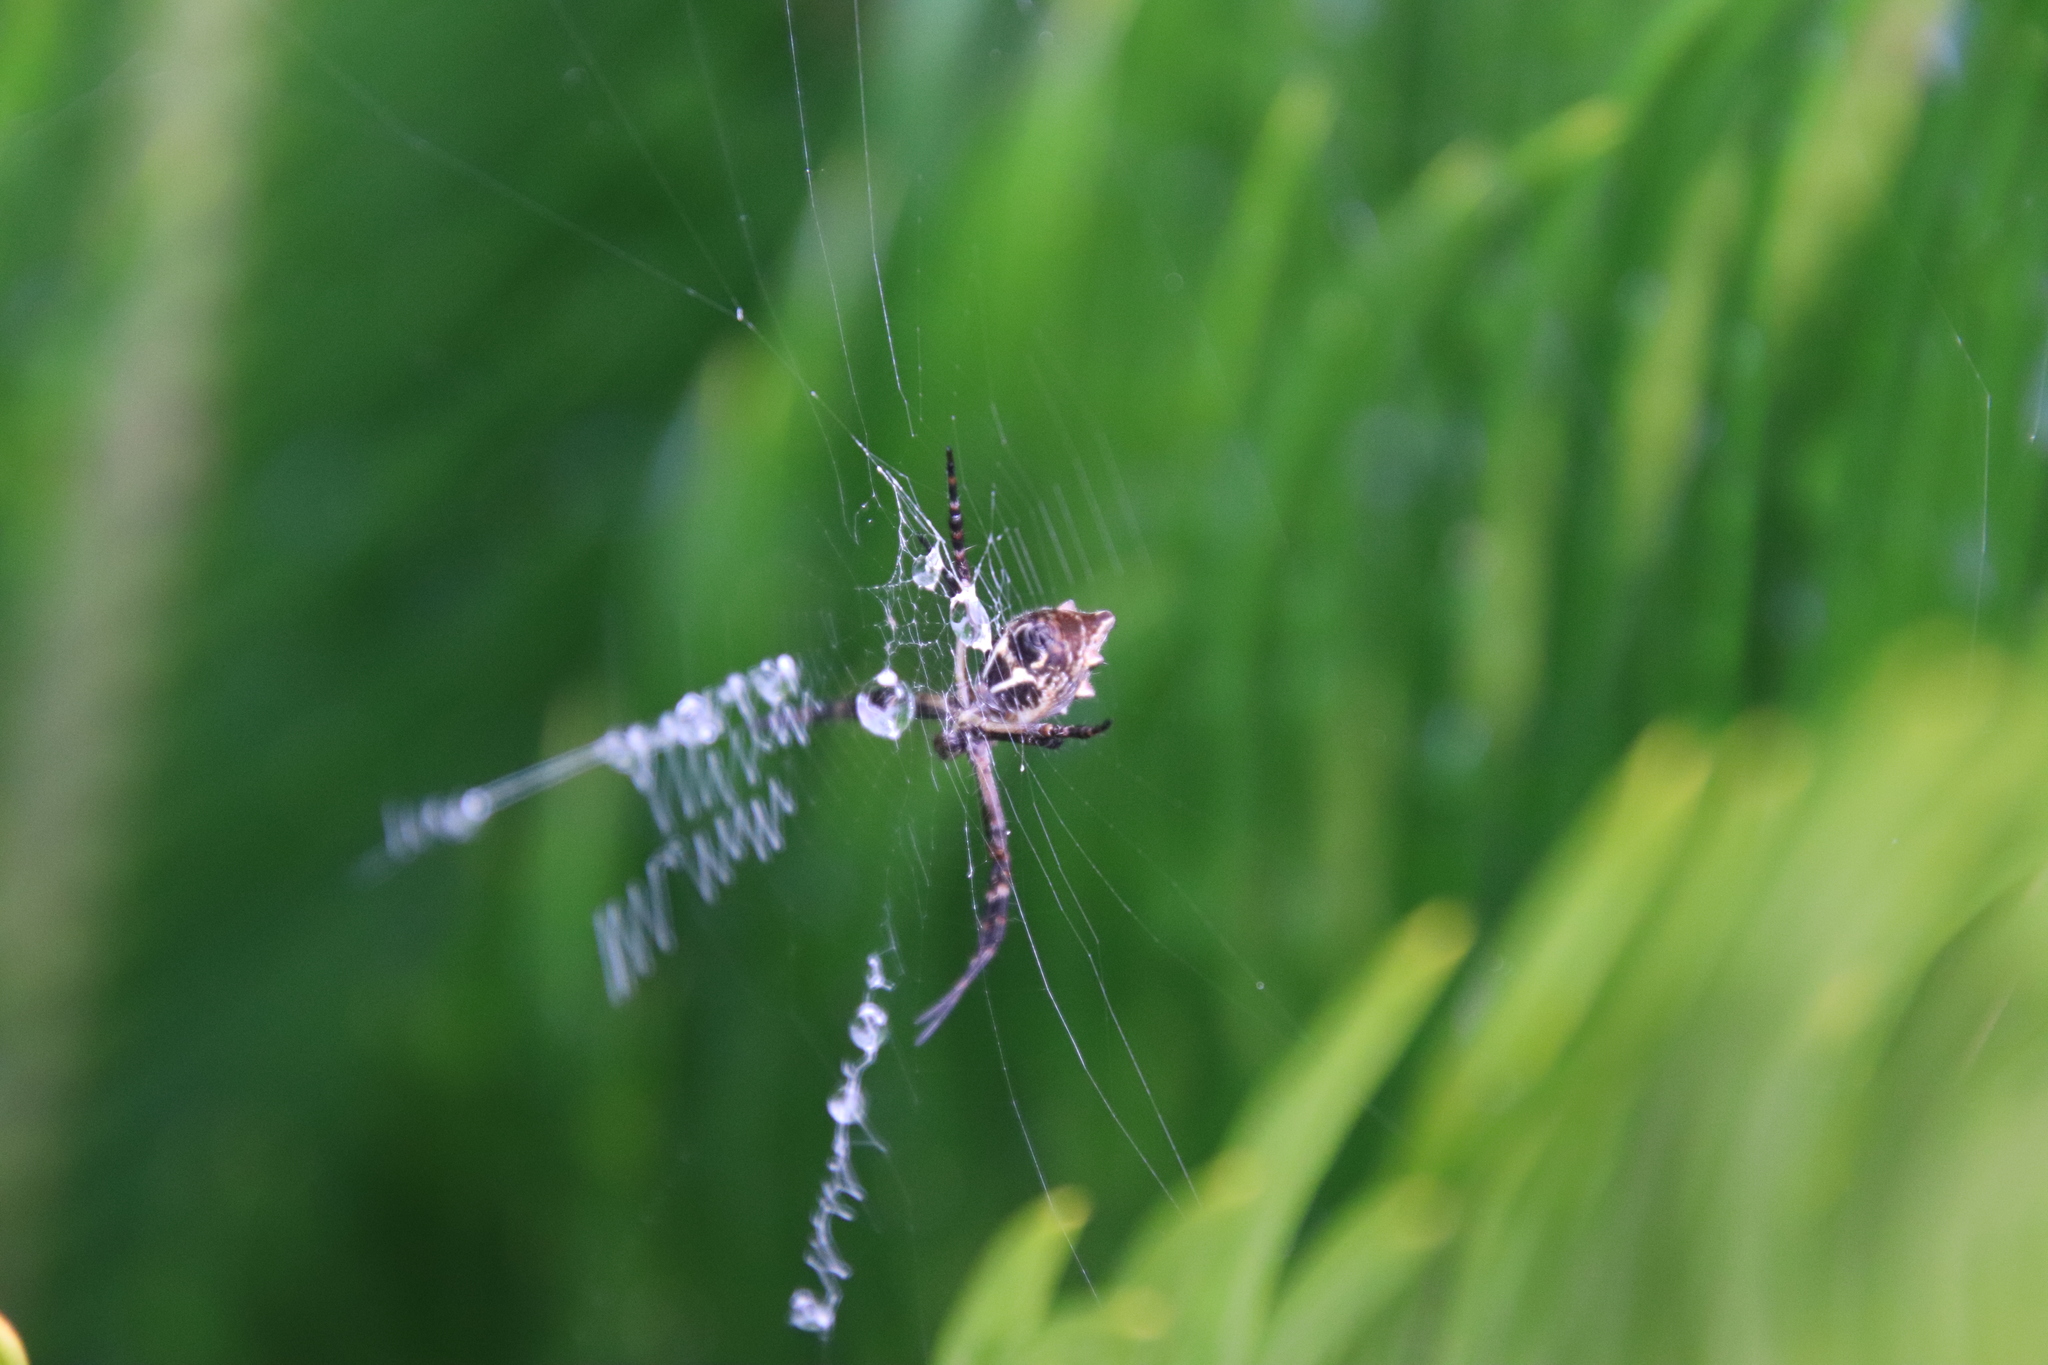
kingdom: Animalia
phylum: Arthropoda
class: Arachnida
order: Araneae
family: Araneidae
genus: Argiope
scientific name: Argiope argentata
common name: Orb weavers
